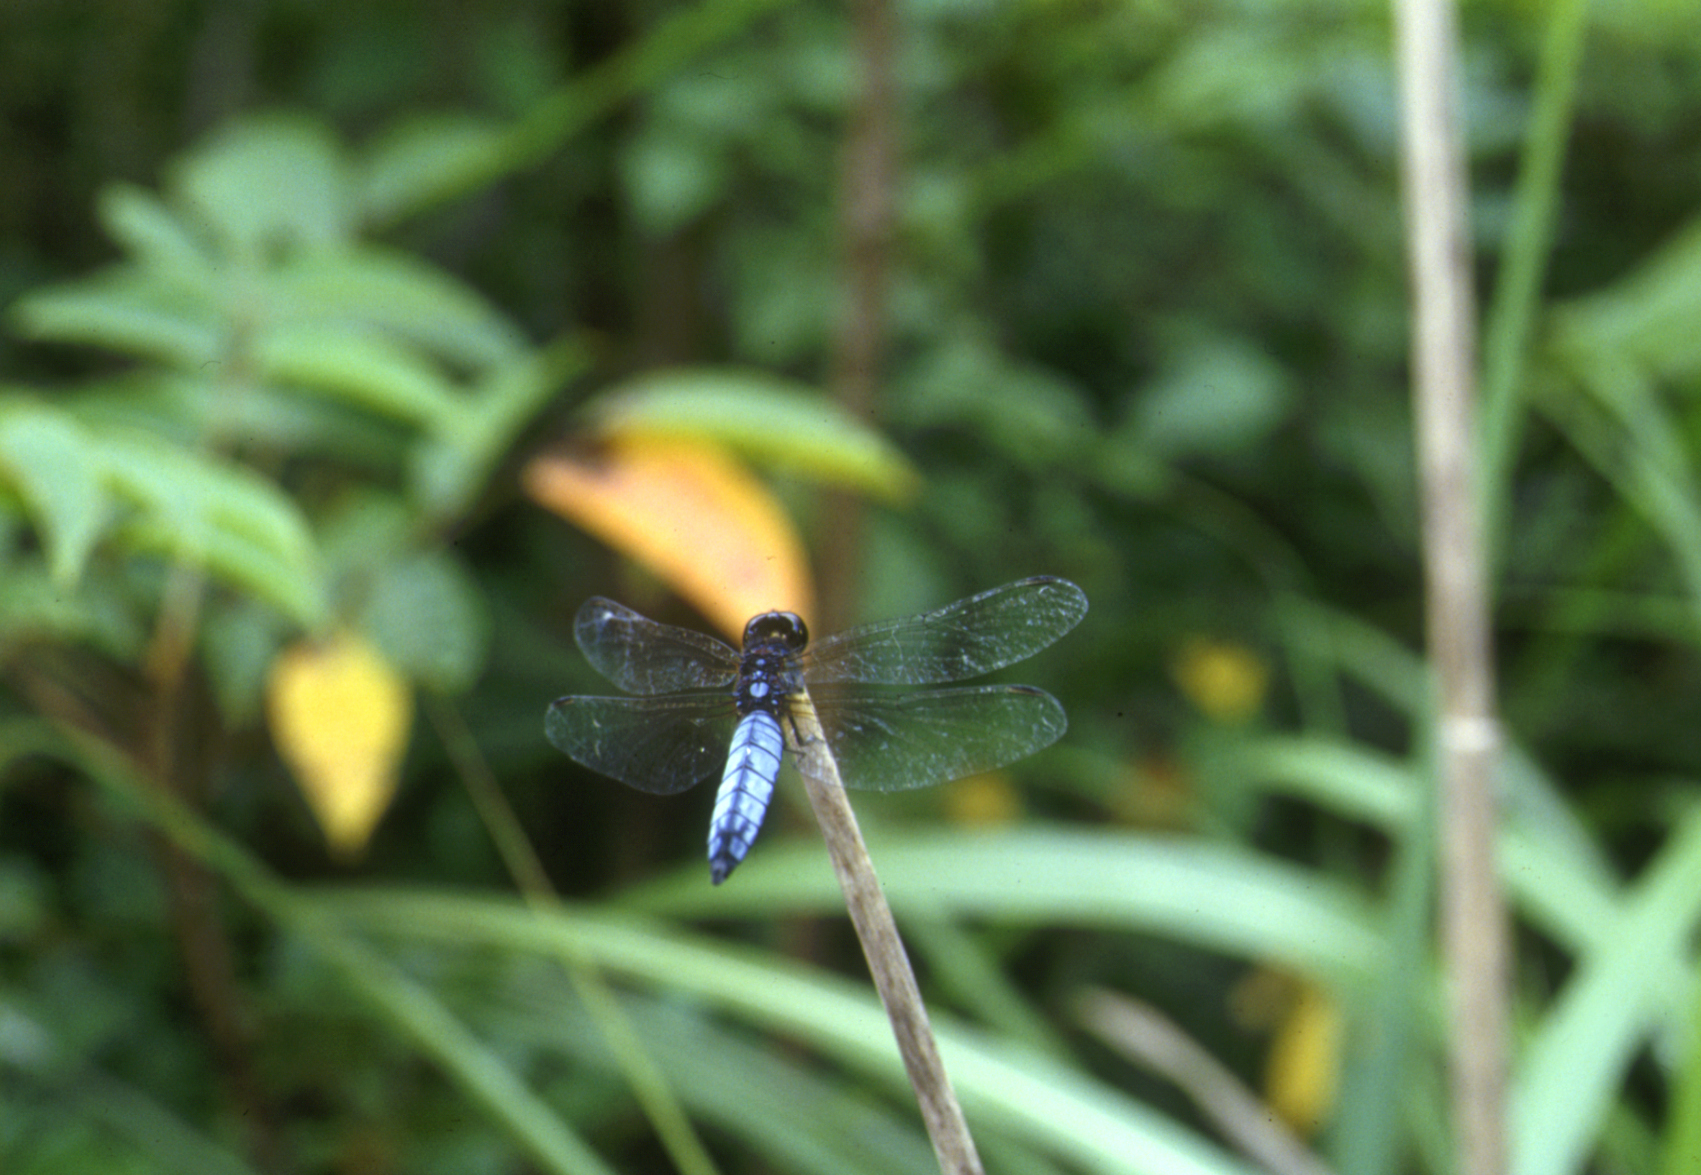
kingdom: Animalia
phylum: Arthropoda
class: Insecta
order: Odonata
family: Libellulidae
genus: Lyriothemis
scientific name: Lyriothemis pachygastra
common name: Wide-bellied skimmer
